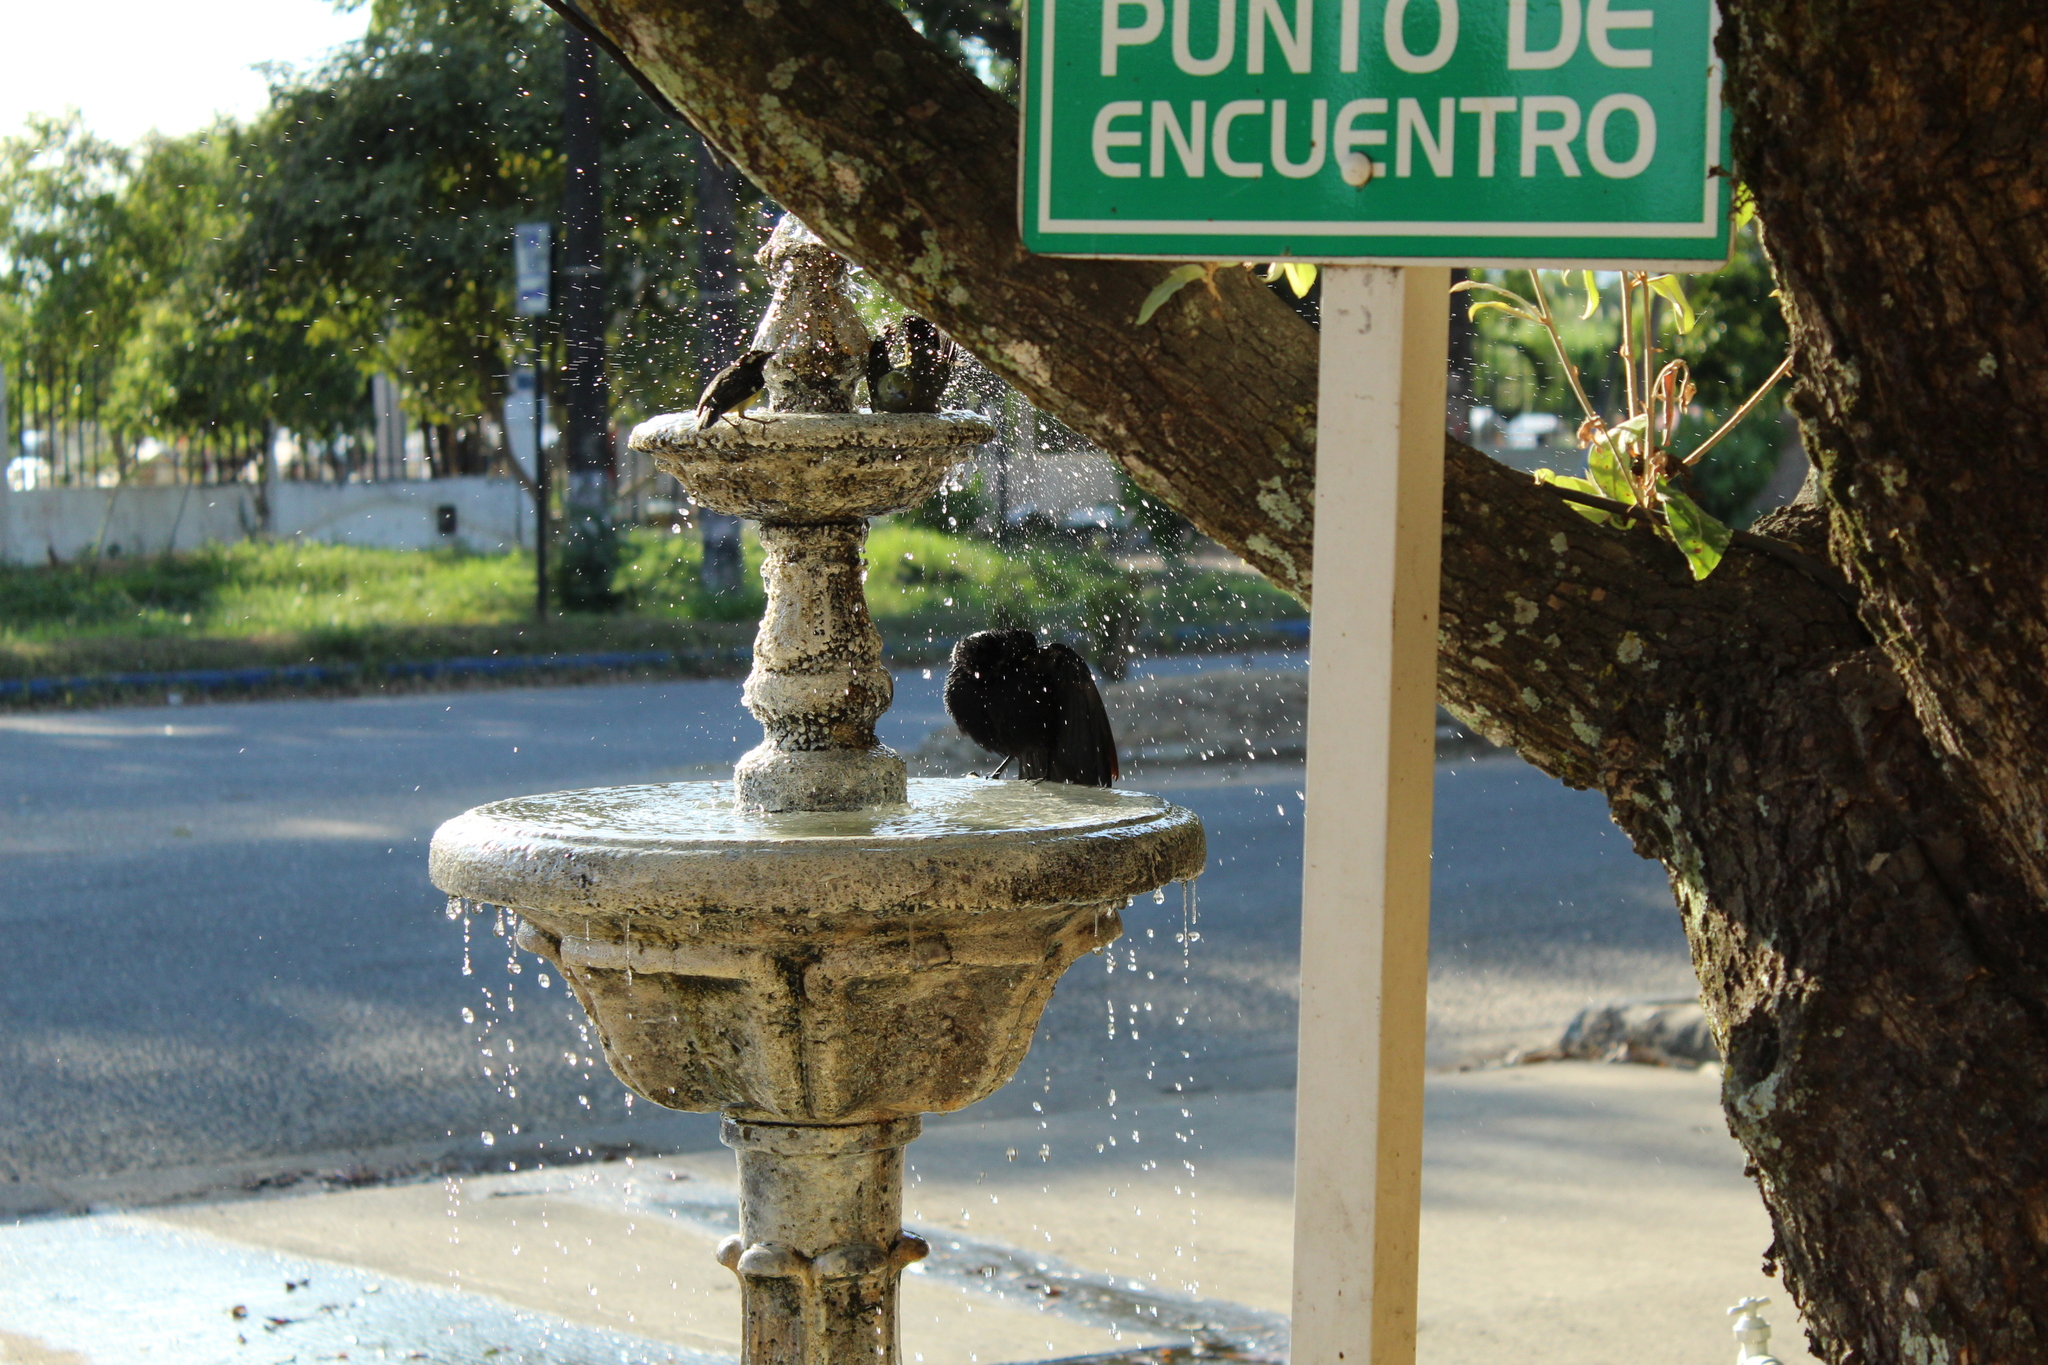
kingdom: Animalia
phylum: Chordata
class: Aves
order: Passeriformes
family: Icteridae
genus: Quiscalus
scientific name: Quiscalus mexicanus
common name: Great-tailed grackle
